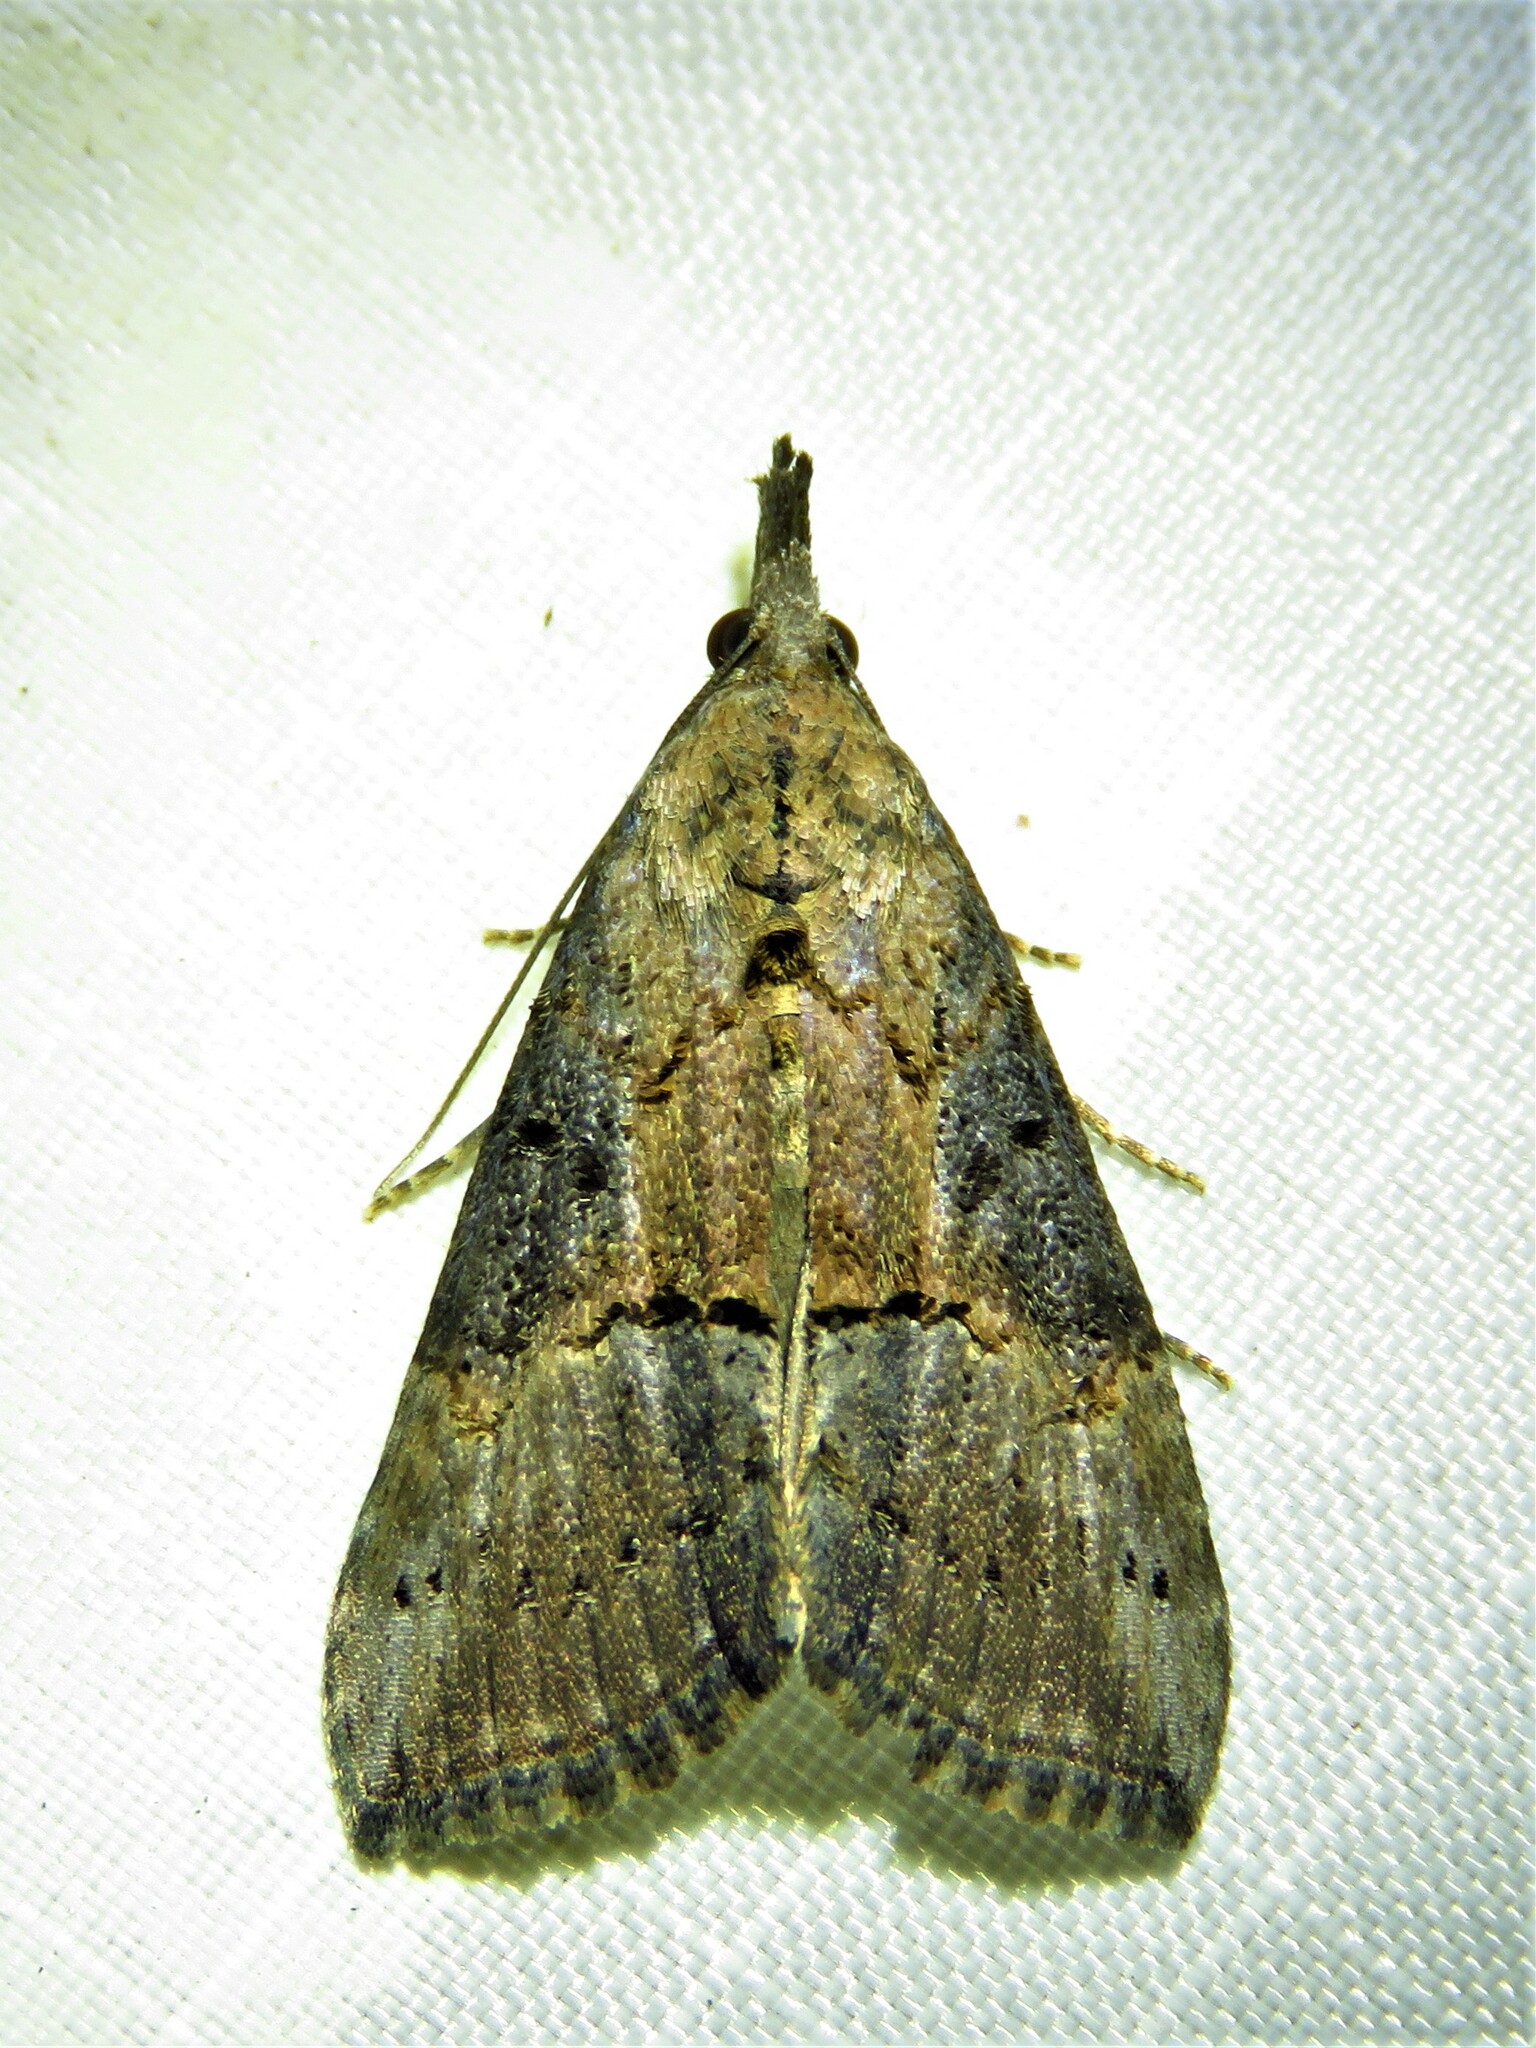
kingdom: Animalia
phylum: Arthropoda
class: Insecta
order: Lepidoptera
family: Erebidae
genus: Hypena
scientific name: Hypena scabra
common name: Green cloverworm
